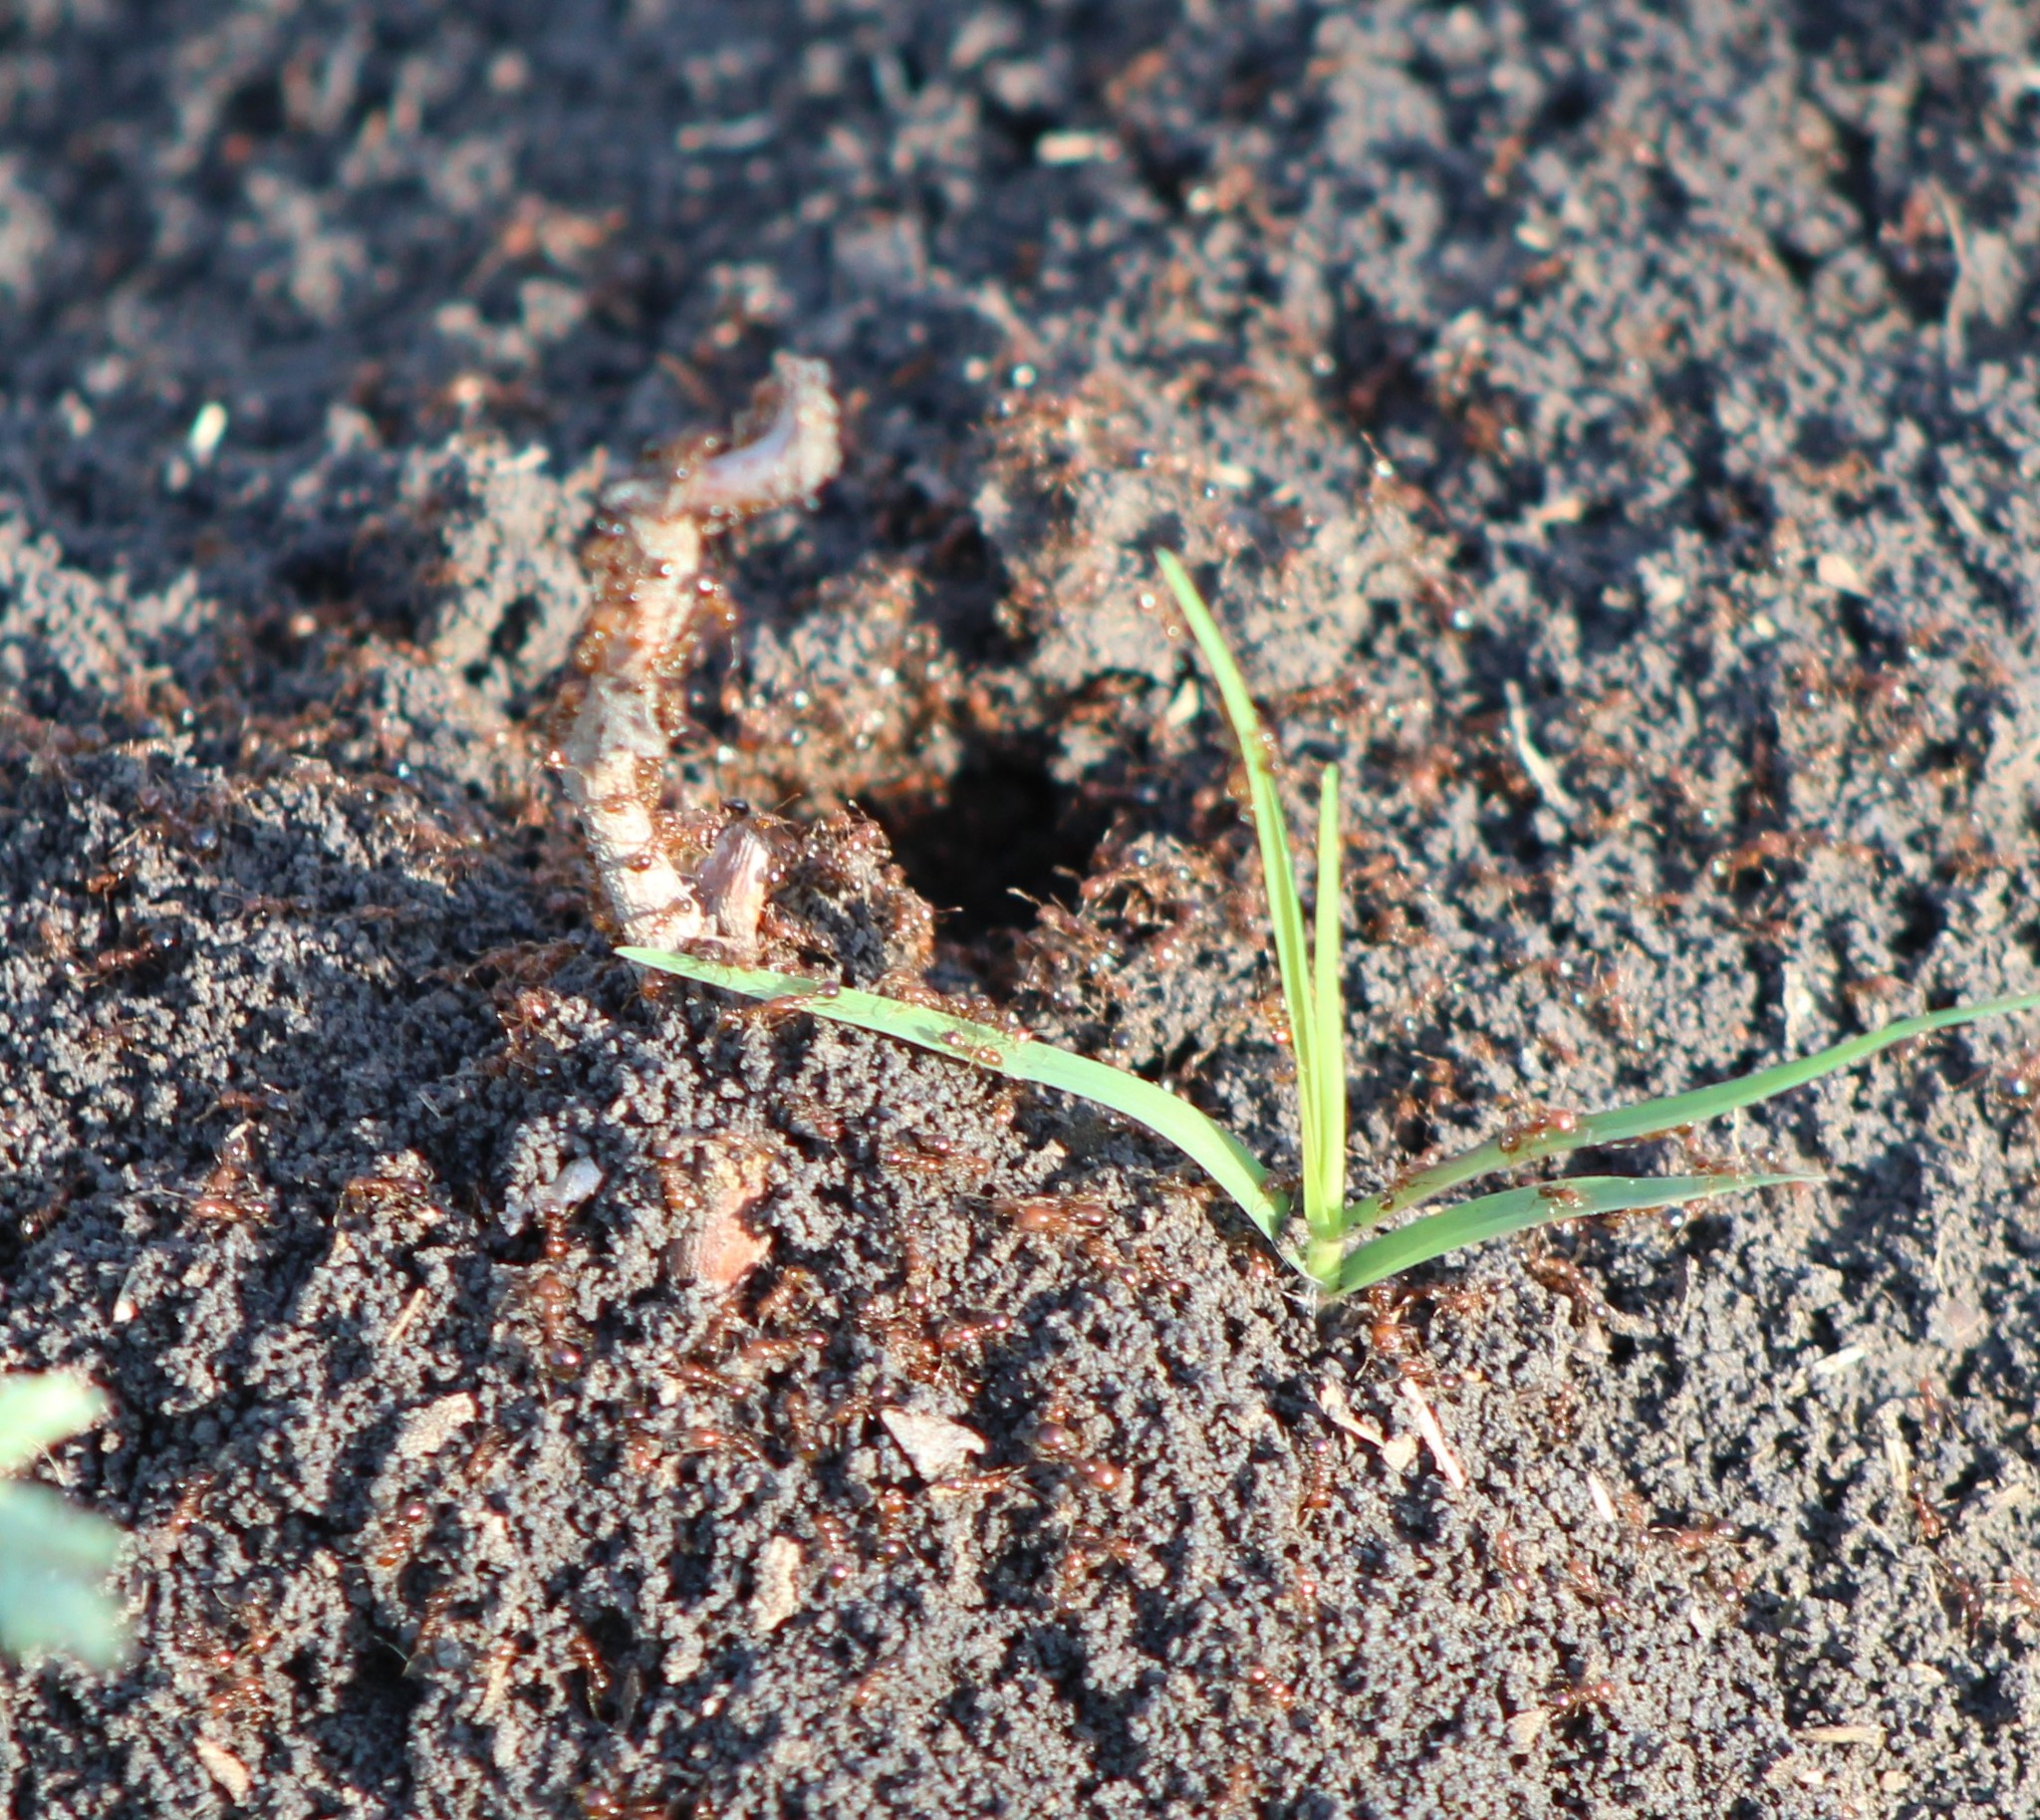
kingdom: Animalia
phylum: Arthropoda
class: Insecta
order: Hymenoptera
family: Formicidae
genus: Solenopsis
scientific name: Solenopsis invicta
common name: Red imported fire ant
